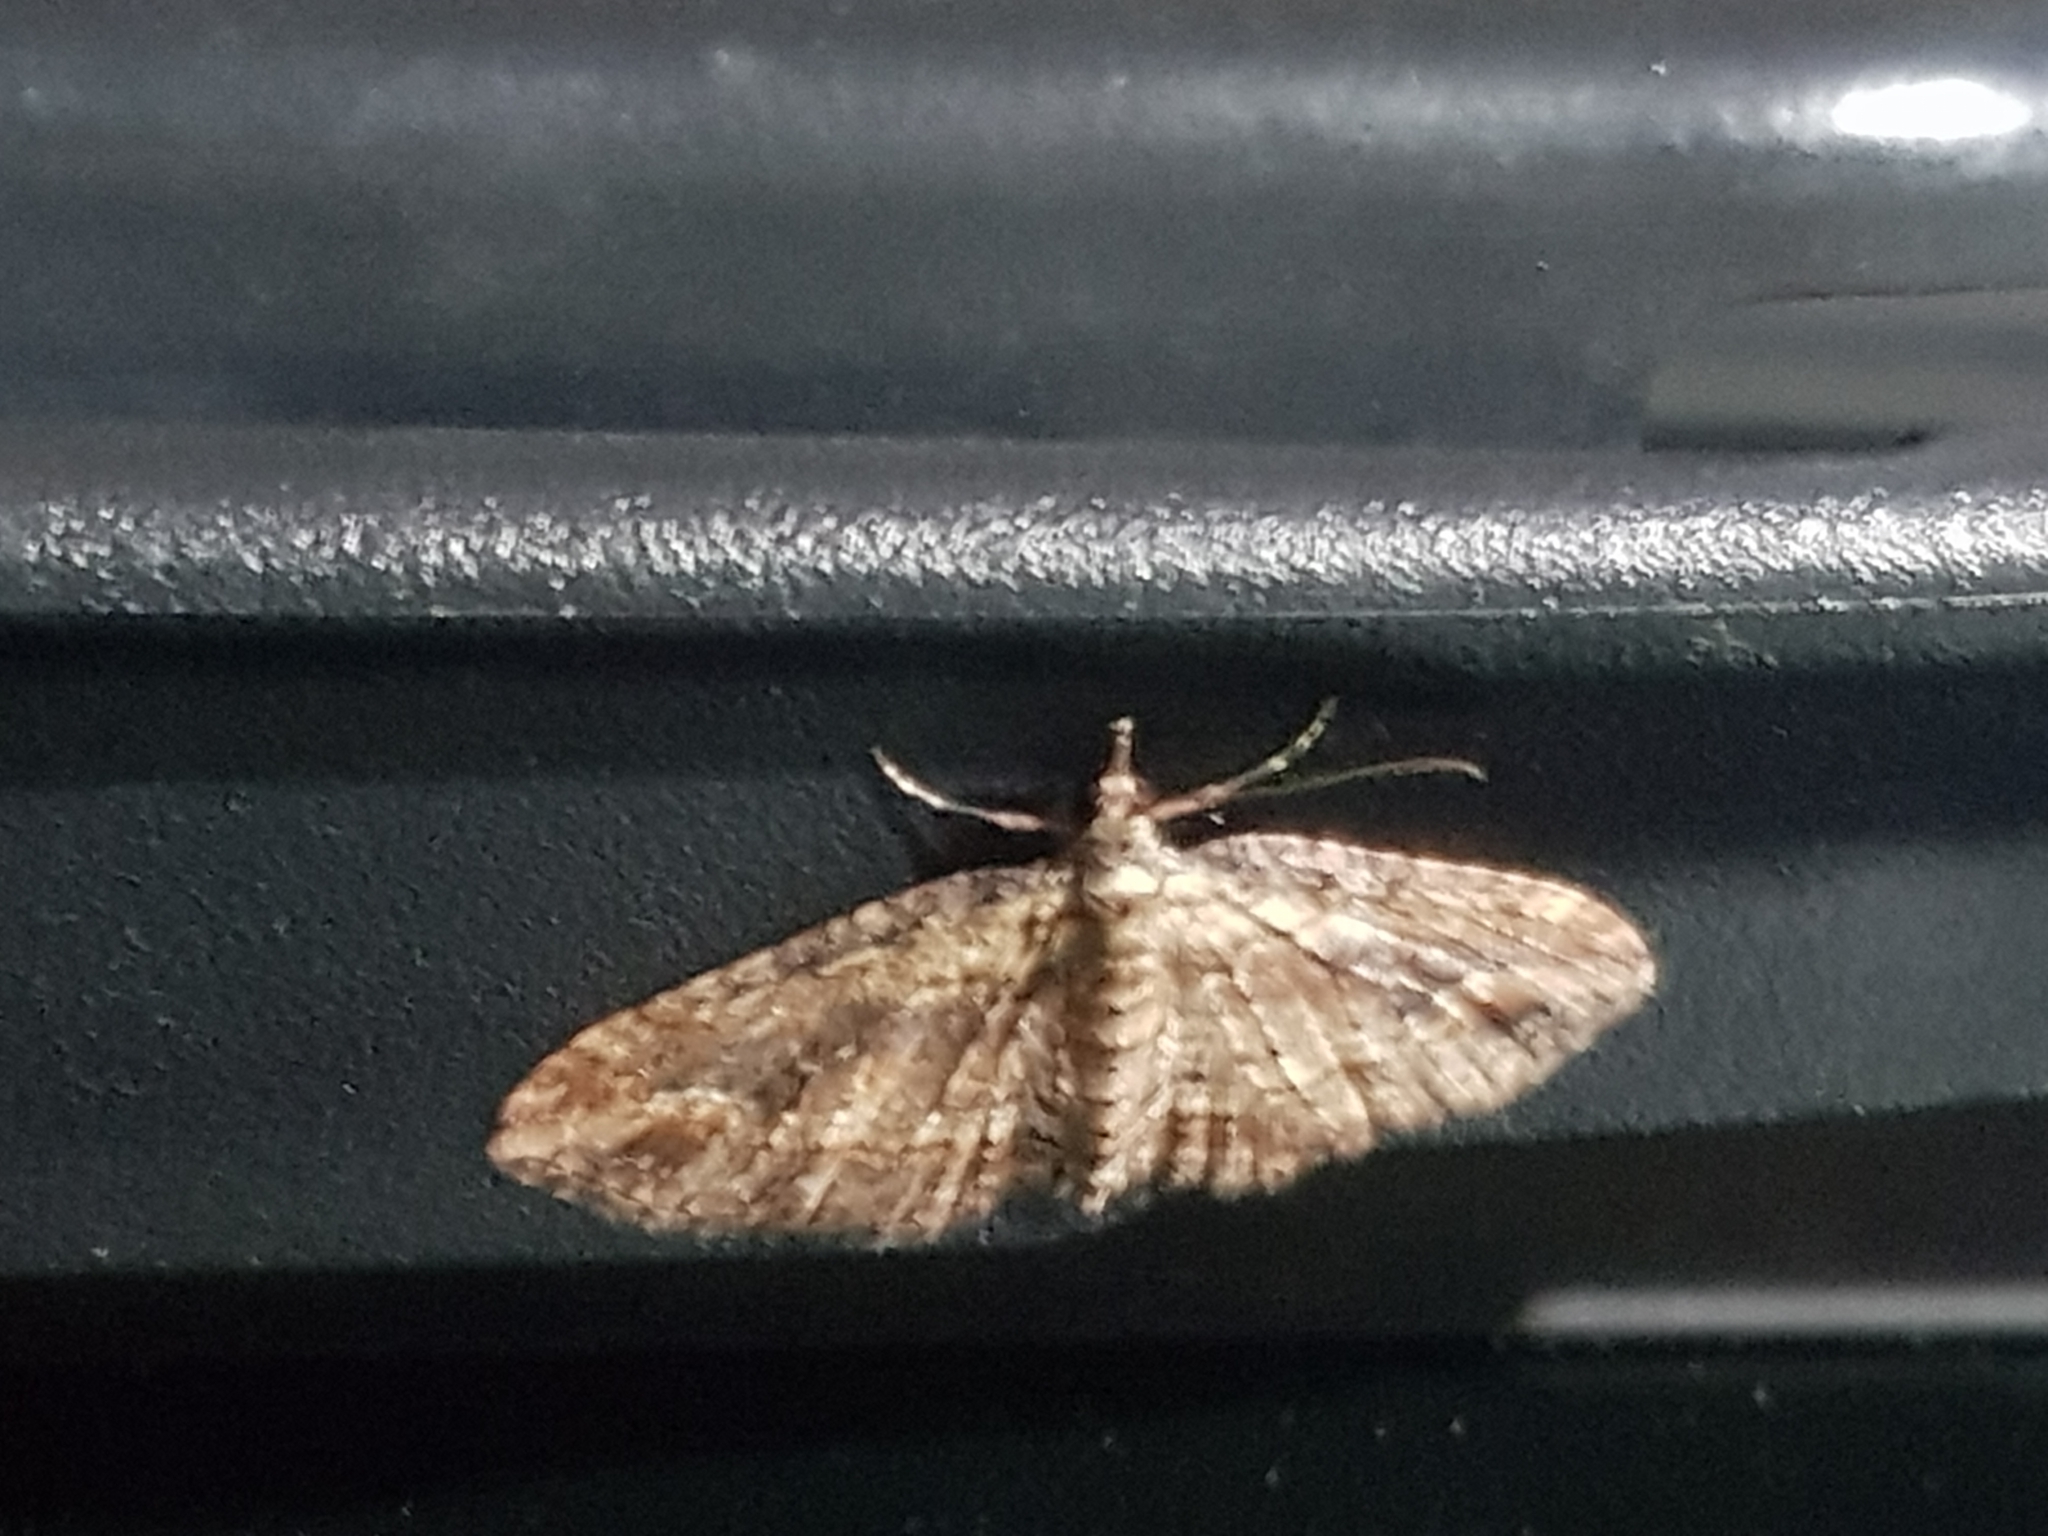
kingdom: Animalia
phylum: Arthropoda
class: Insecta
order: Lepidoptera
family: Geometridae
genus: Chloroclystis
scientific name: Chloroclystis filata
